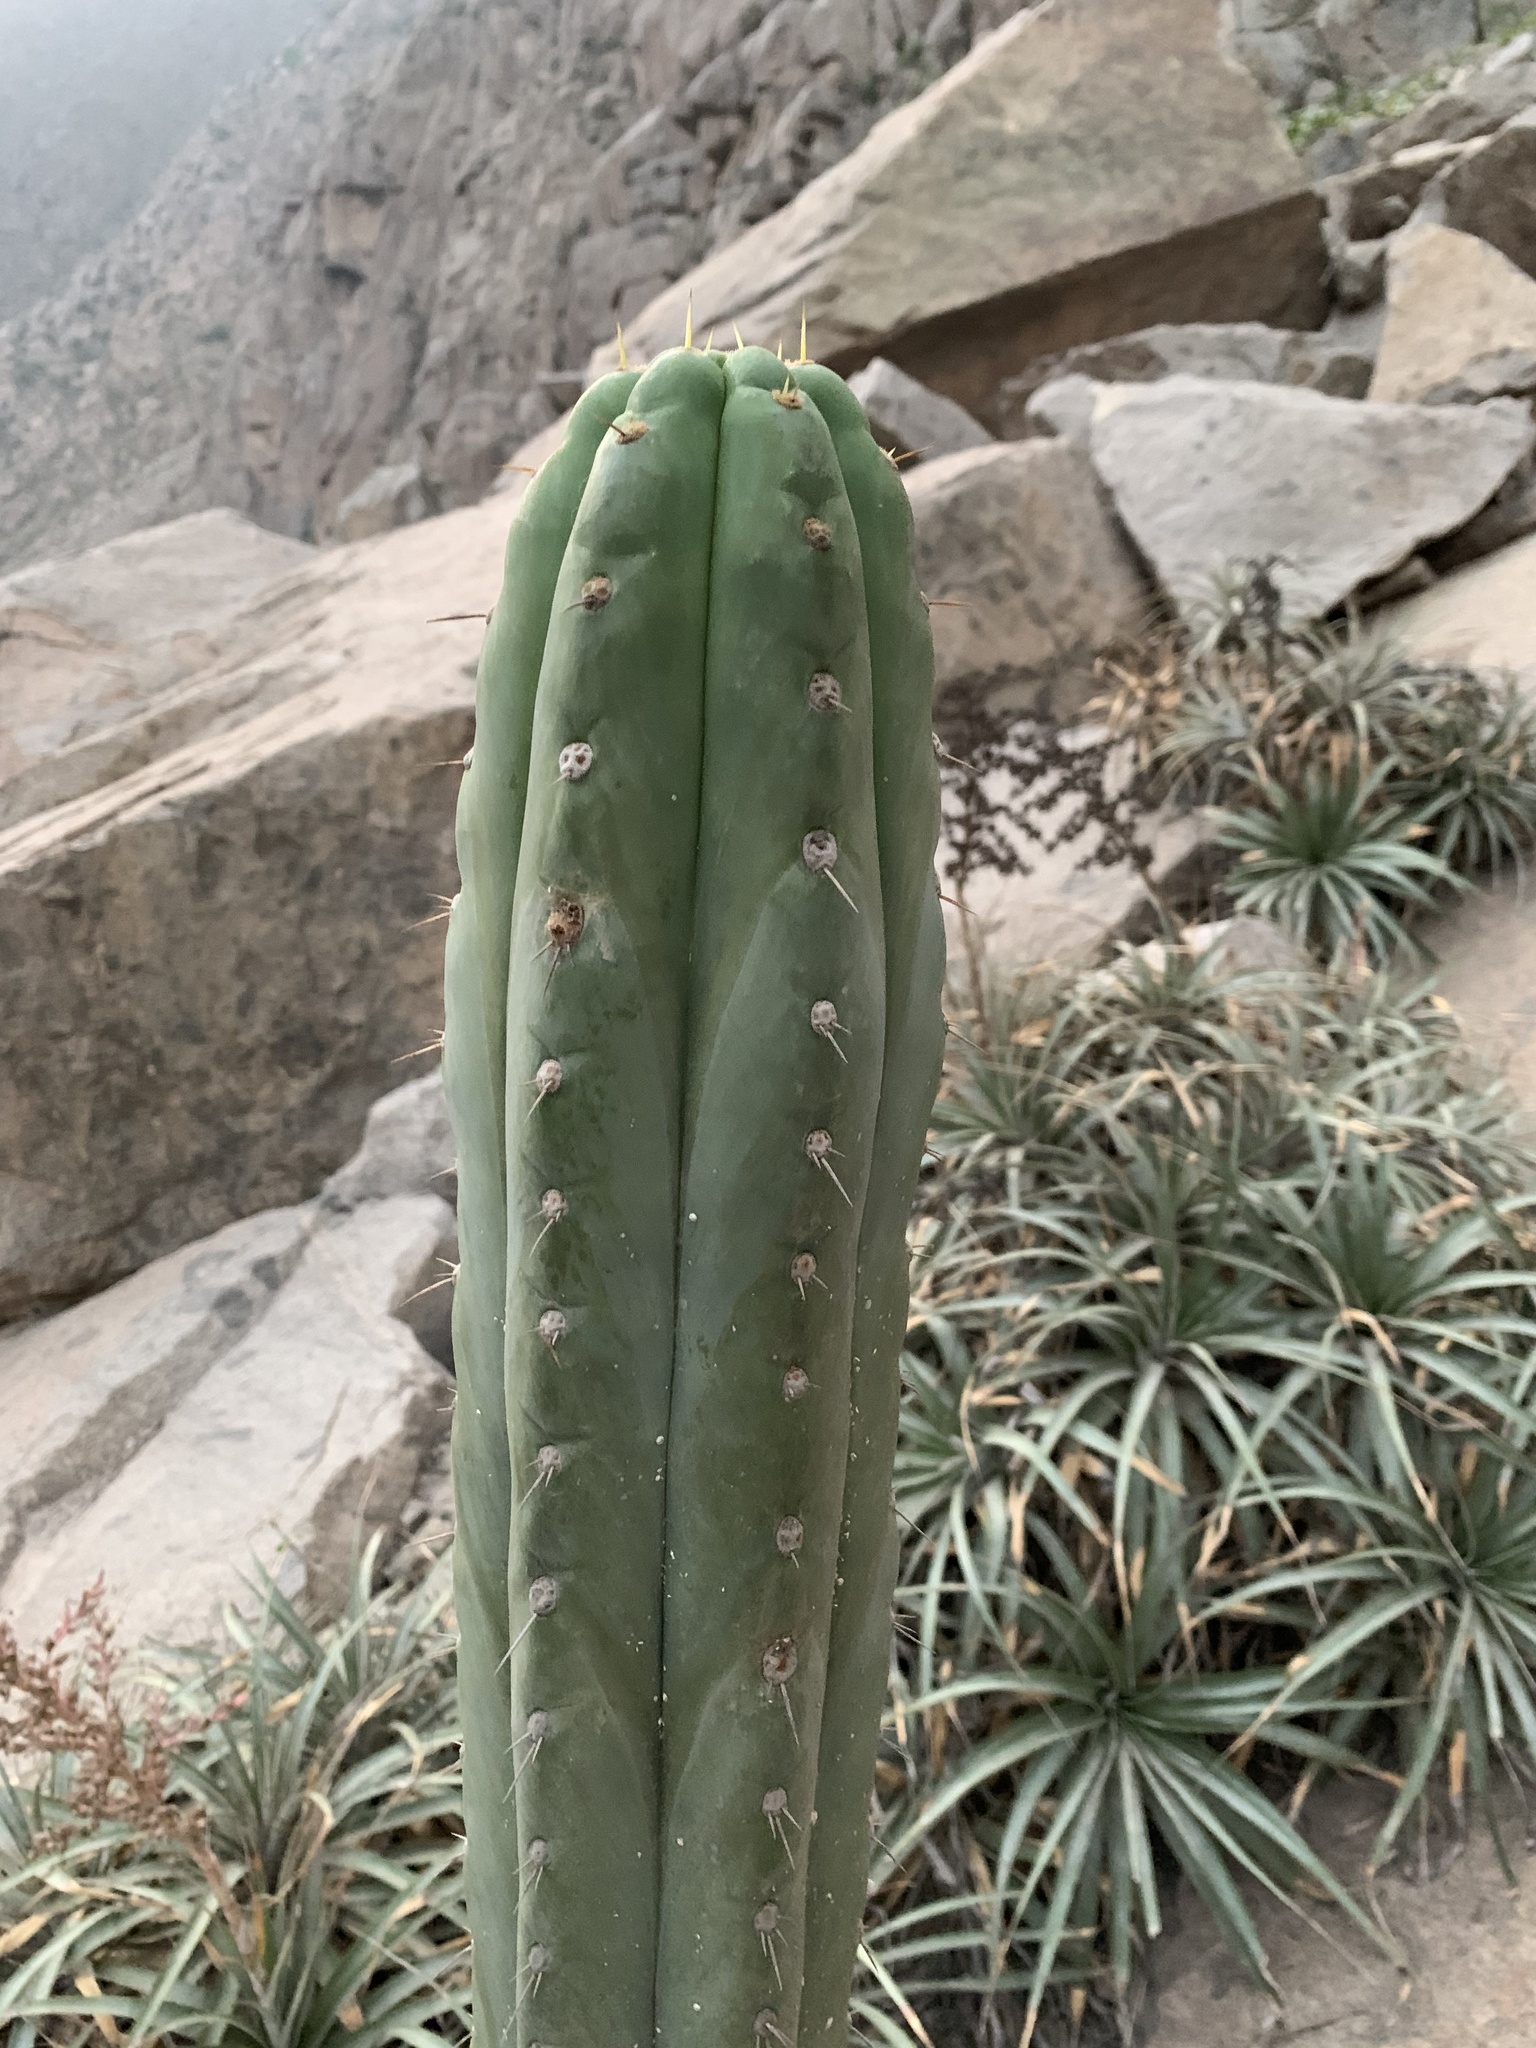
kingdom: Plantae
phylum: Tracheophyta
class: Magnoliopsida
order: Caryophyllales
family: Cactaceae
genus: Trichocereus
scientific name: Trichocereus macrogonus
